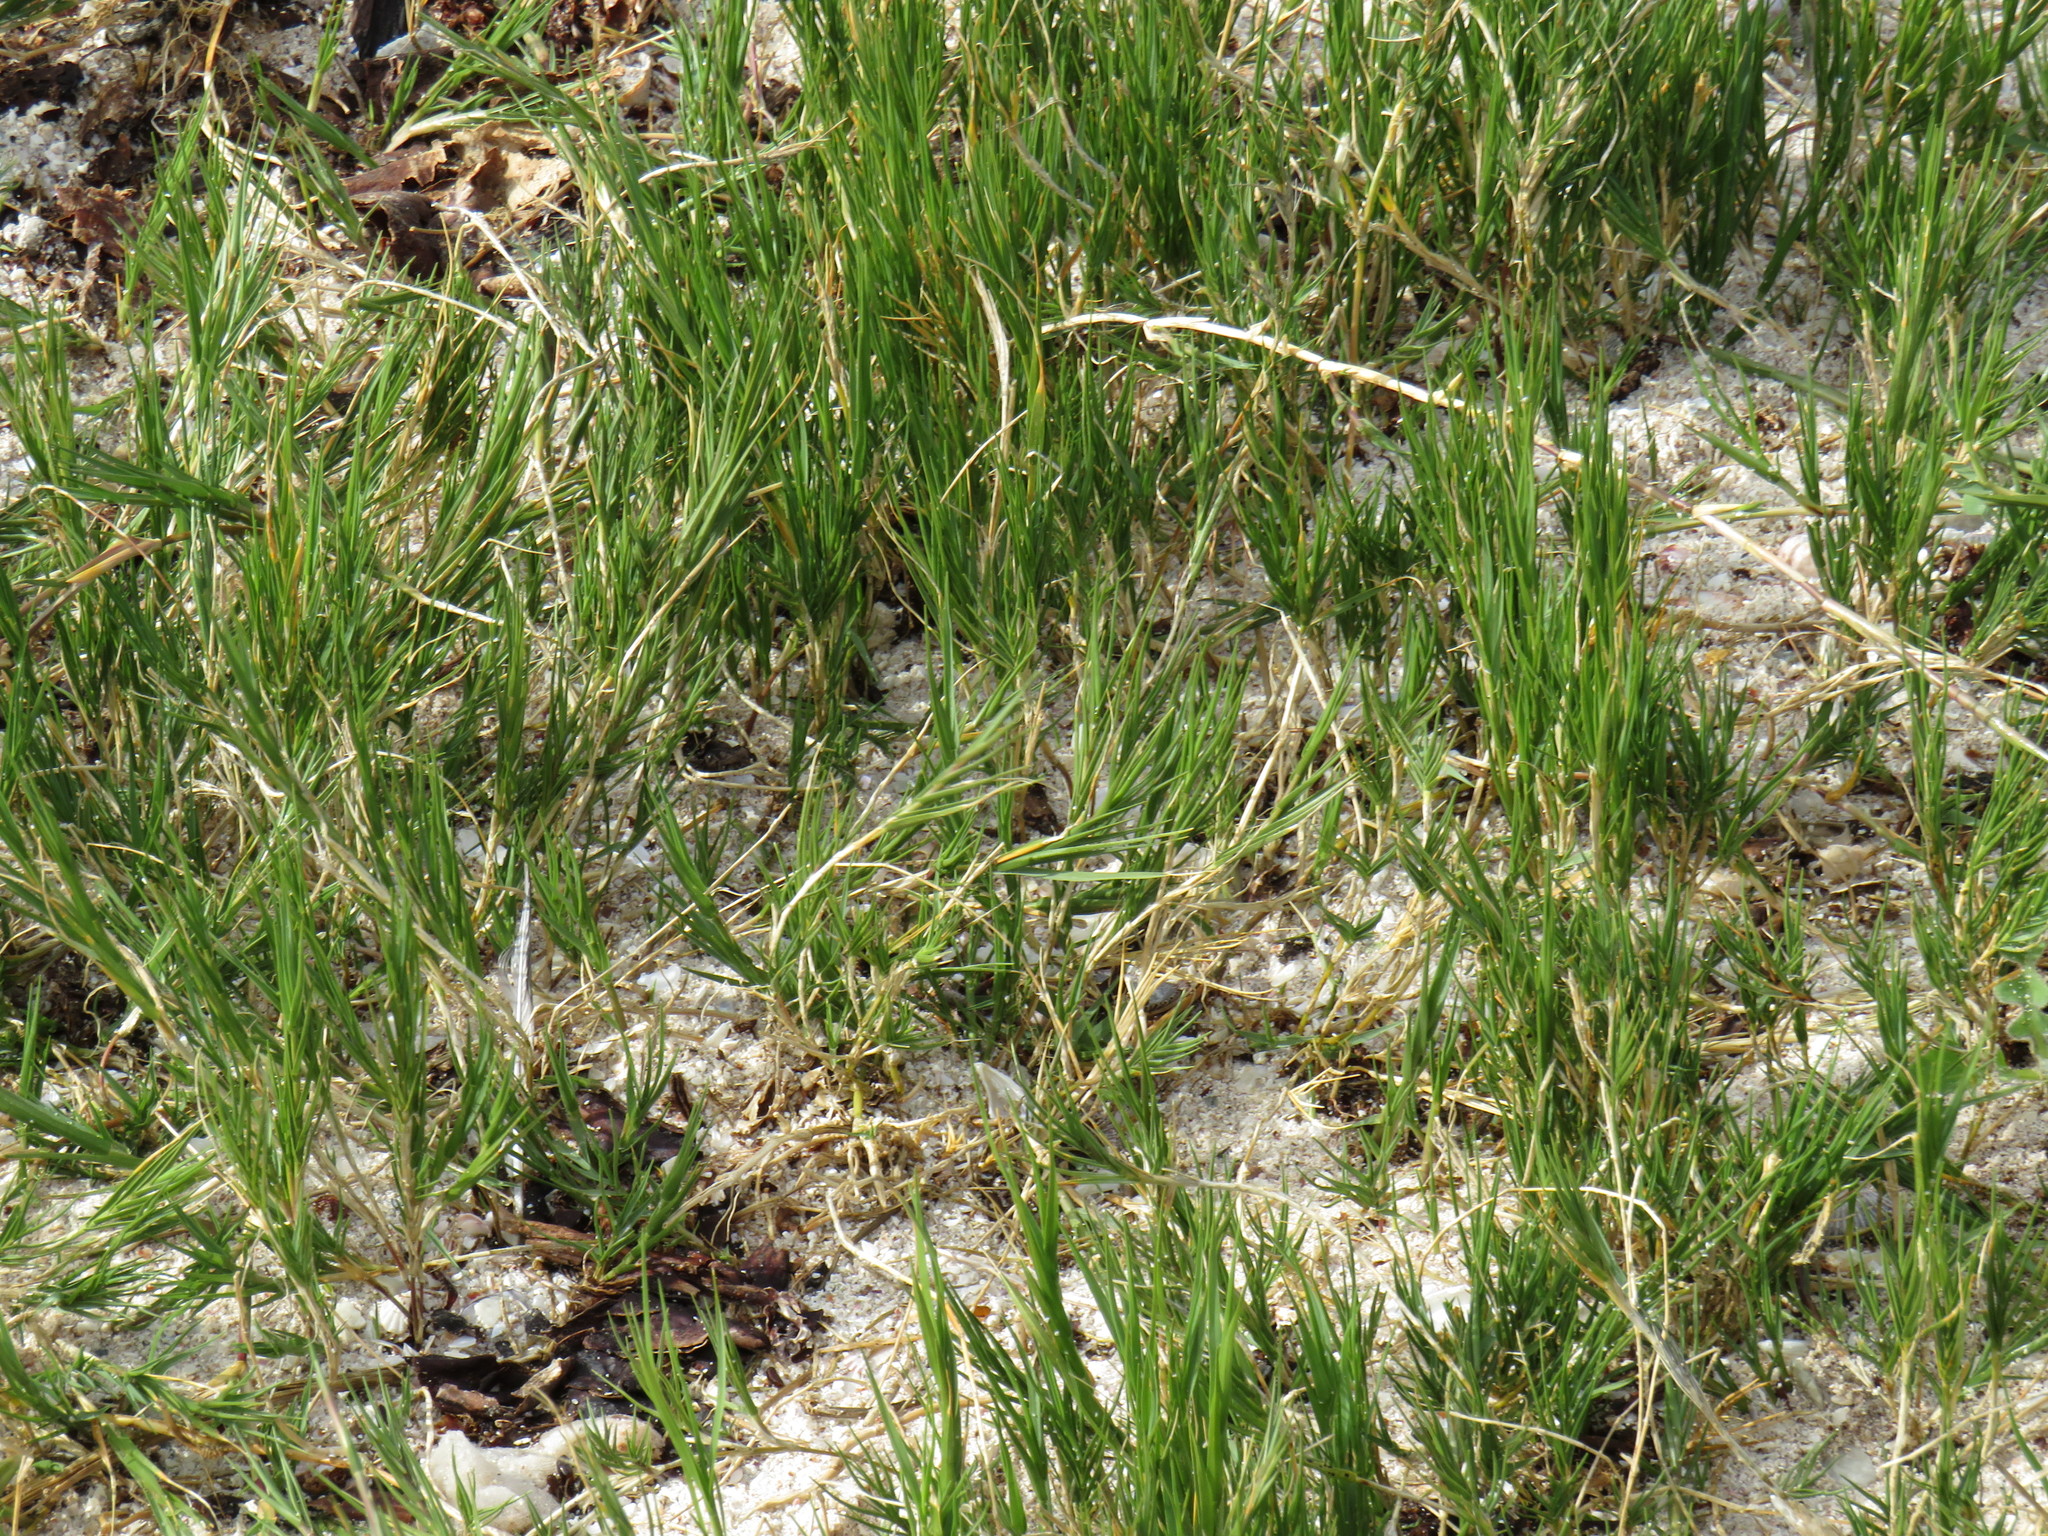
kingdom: Plantae
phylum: Tracheophyta
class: Liliopsida
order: Poales
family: Poaceae
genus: Sporobolus
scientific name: Sporobolus virginicus
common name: Beach dropseed
